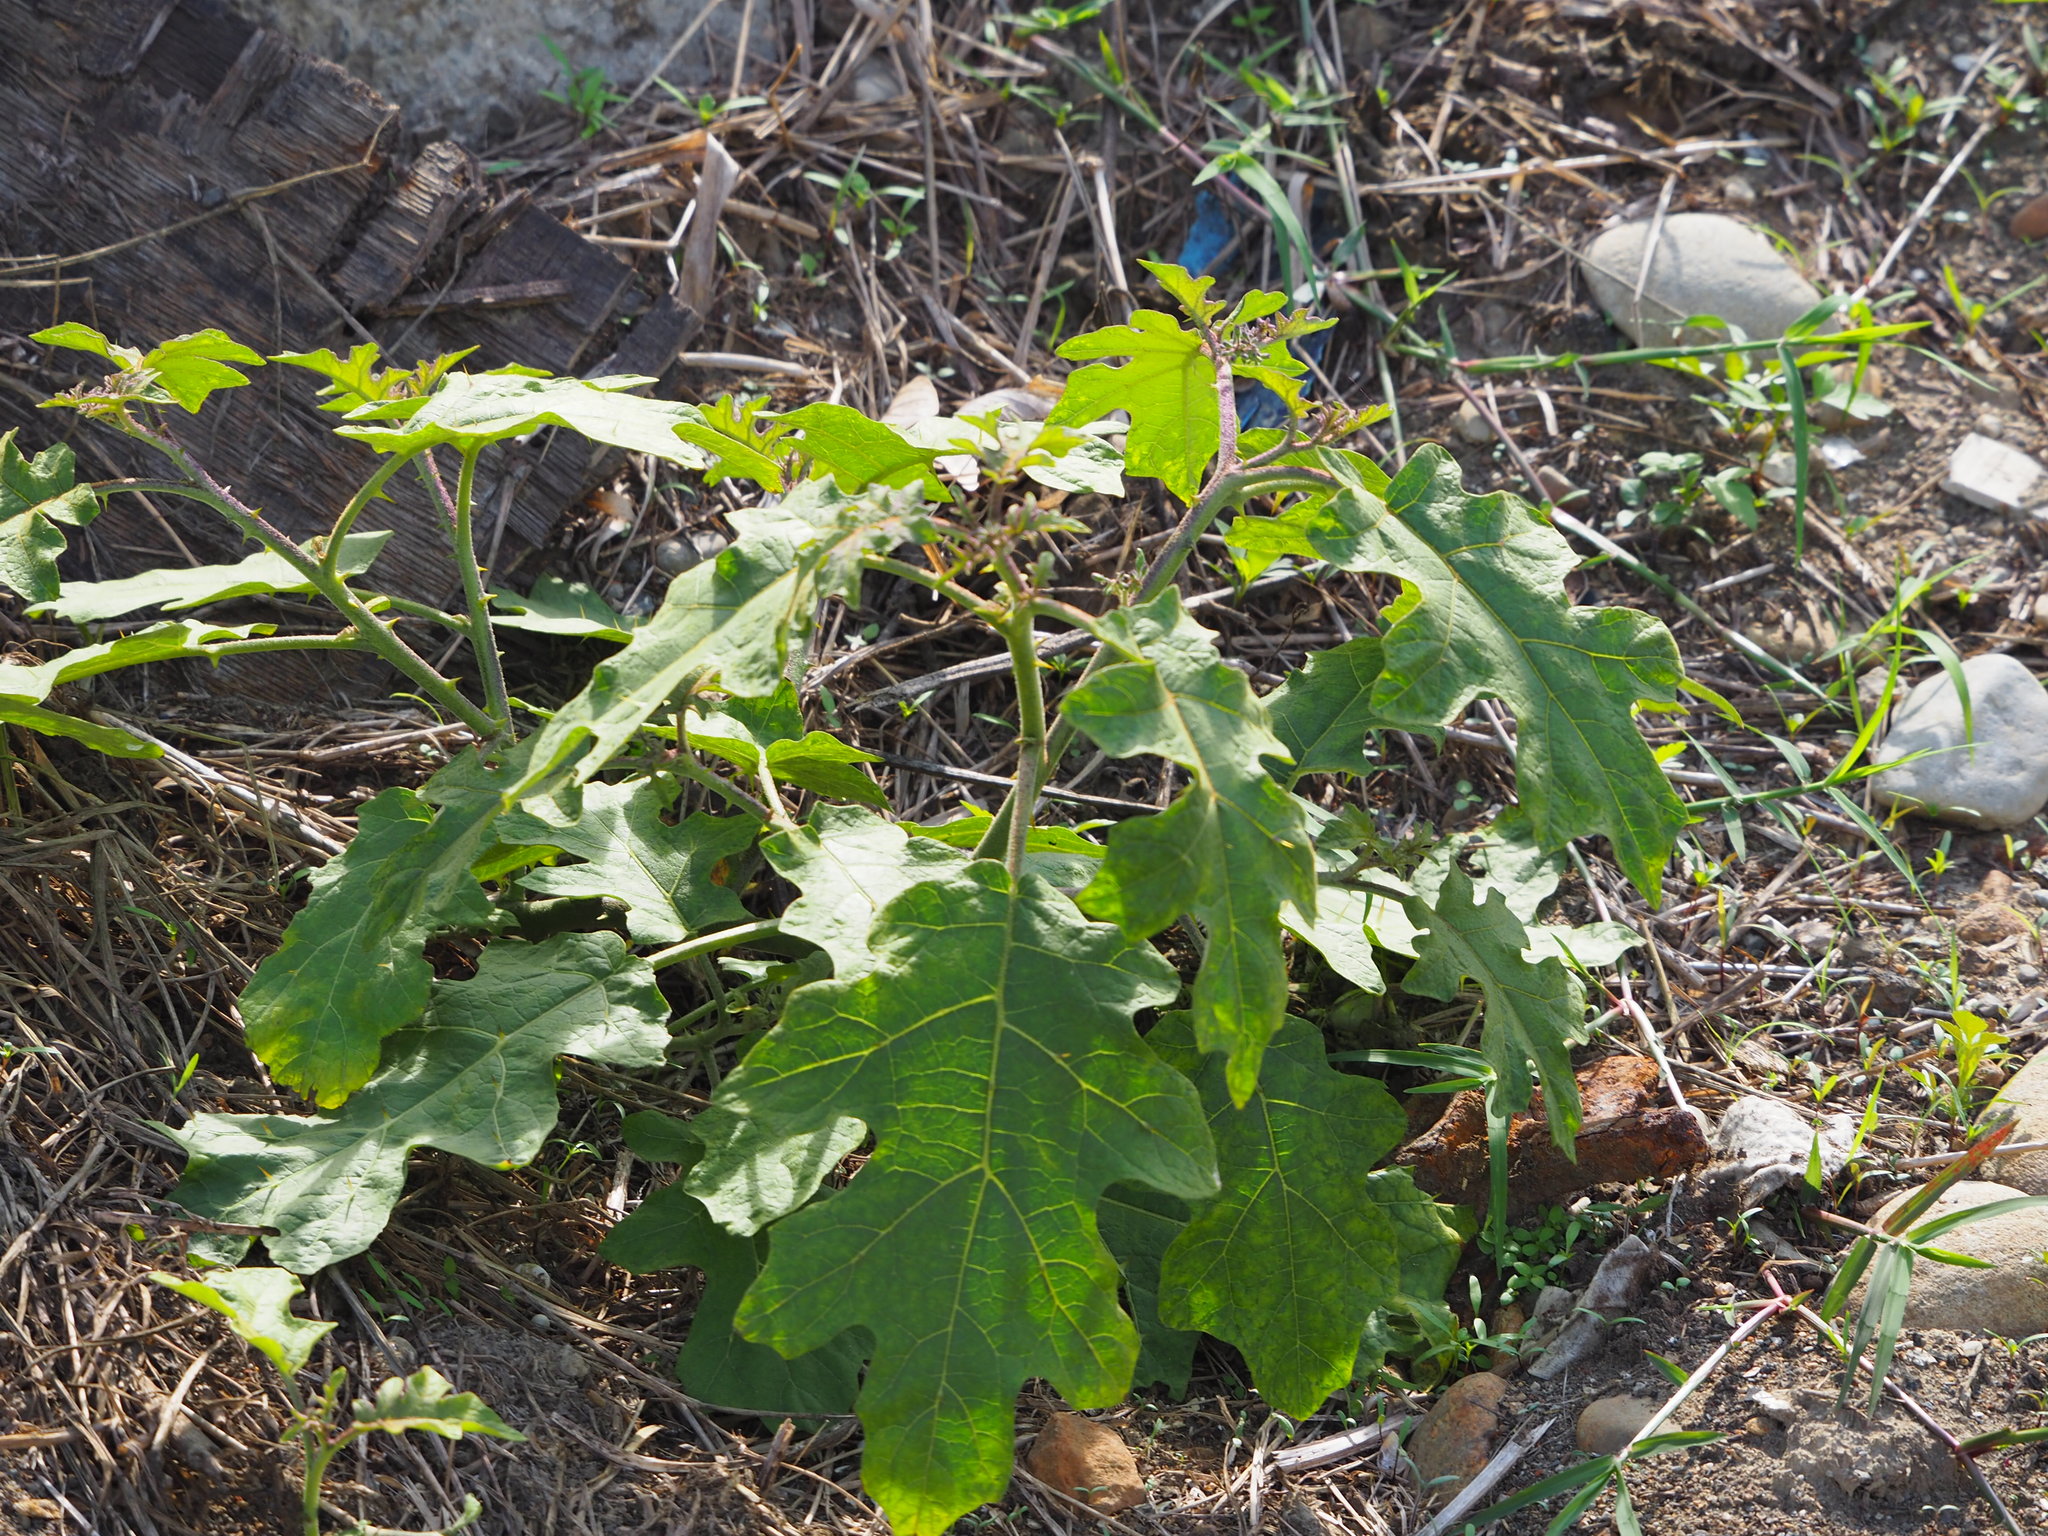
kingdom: Plantae
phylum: Tracheophyta
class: Magnoliopsida
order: Solanales
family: Solanaceae
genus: Solanum
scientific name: Solanum torvum
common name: Turkey berry
